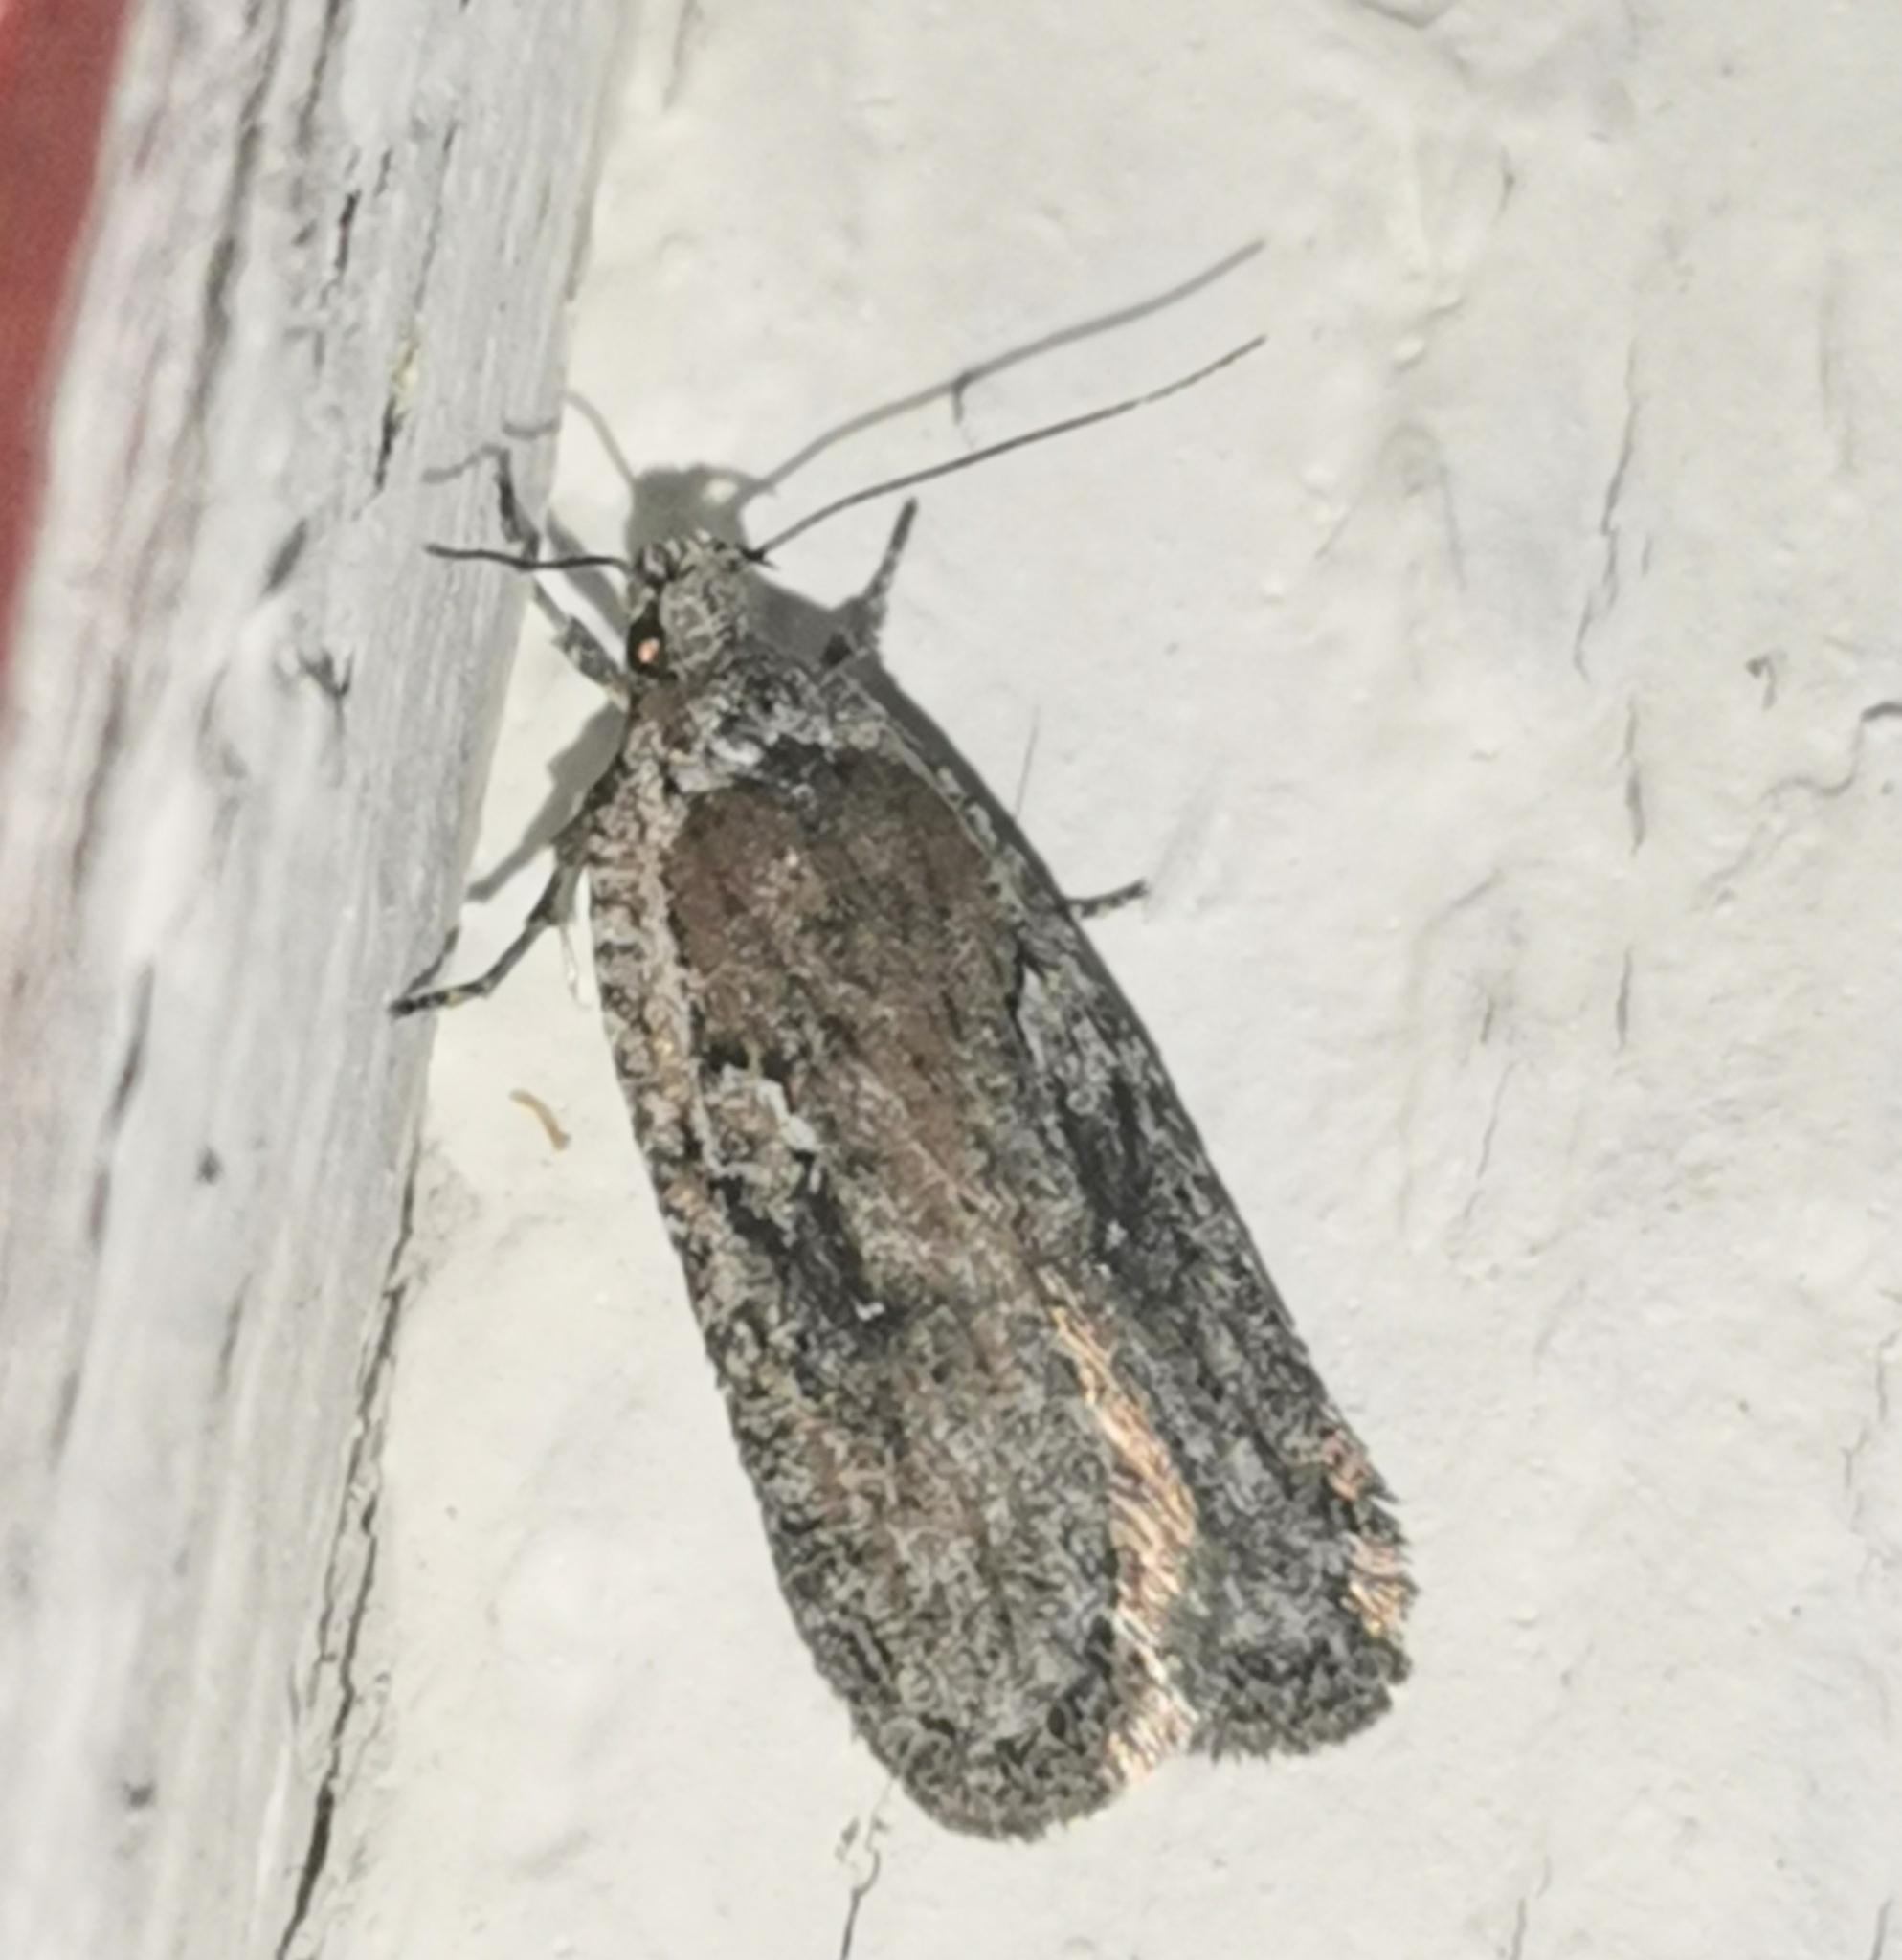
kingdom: Animalia
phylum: Arthropoda
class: Insecta
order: Lepidoptera
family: Depressariidae
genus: Exaeretia
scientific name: Exaeretia ciniflonella
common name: Scotch flat-body
